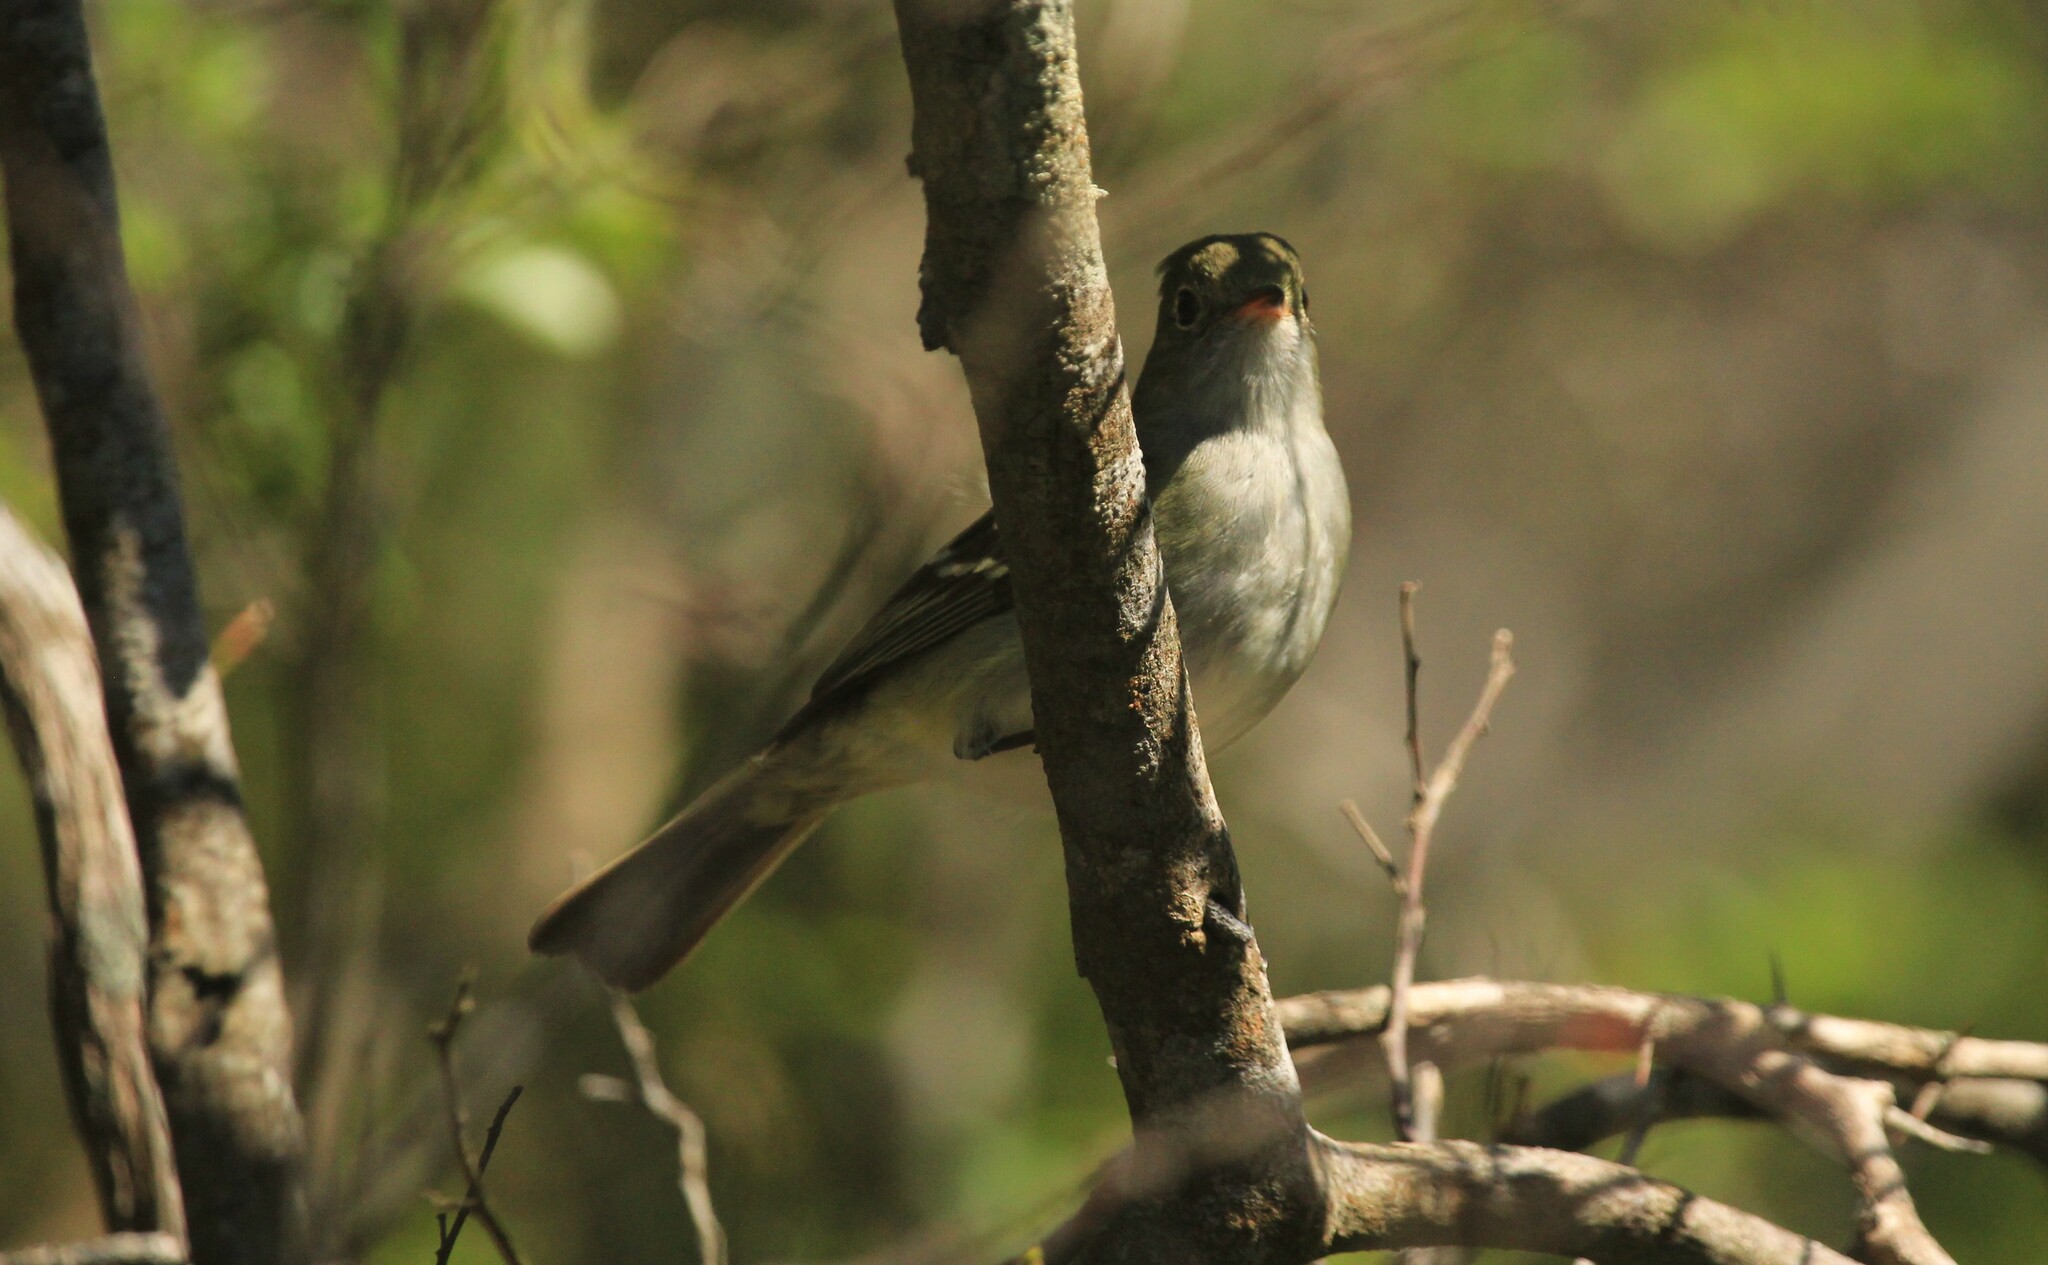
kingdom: Animalia
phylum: Chordata
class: Aves
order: Passeriformes
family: Tyrannidae
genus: Elaenia
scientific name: Elaenia parvirostris
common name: Small-billed elaenia
